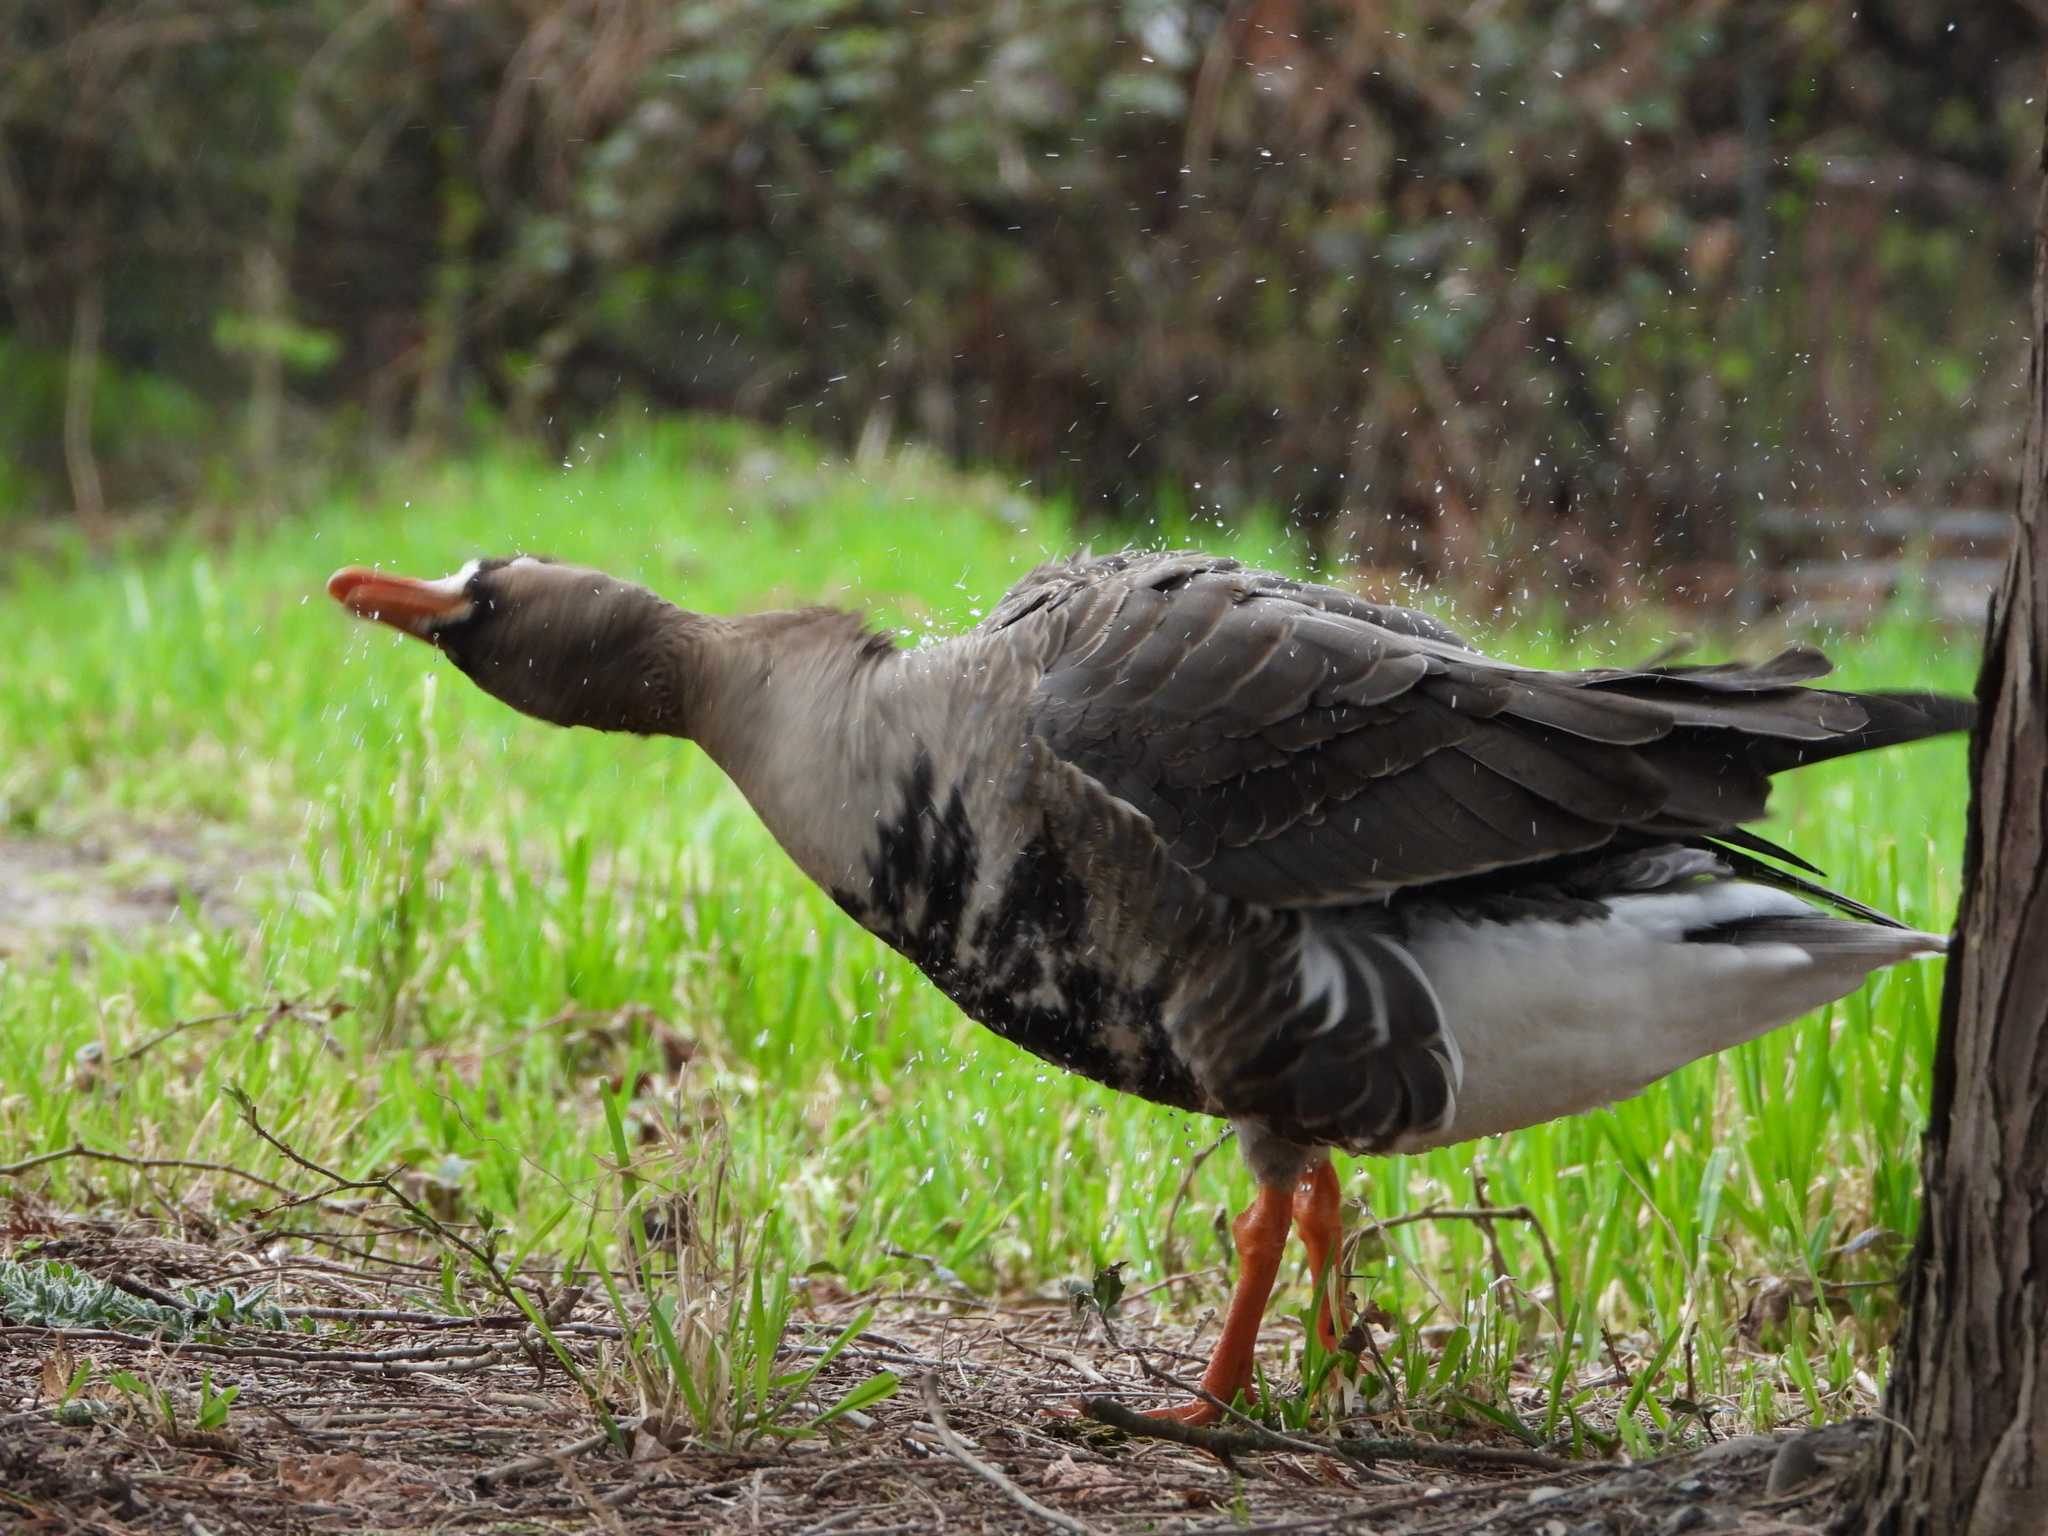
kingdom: Animalia
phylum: Chordata
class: Aves
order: Anseriformes
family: Anatidae
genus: Anser
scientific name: Anser albifrons
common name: Greater white-fronted goose
